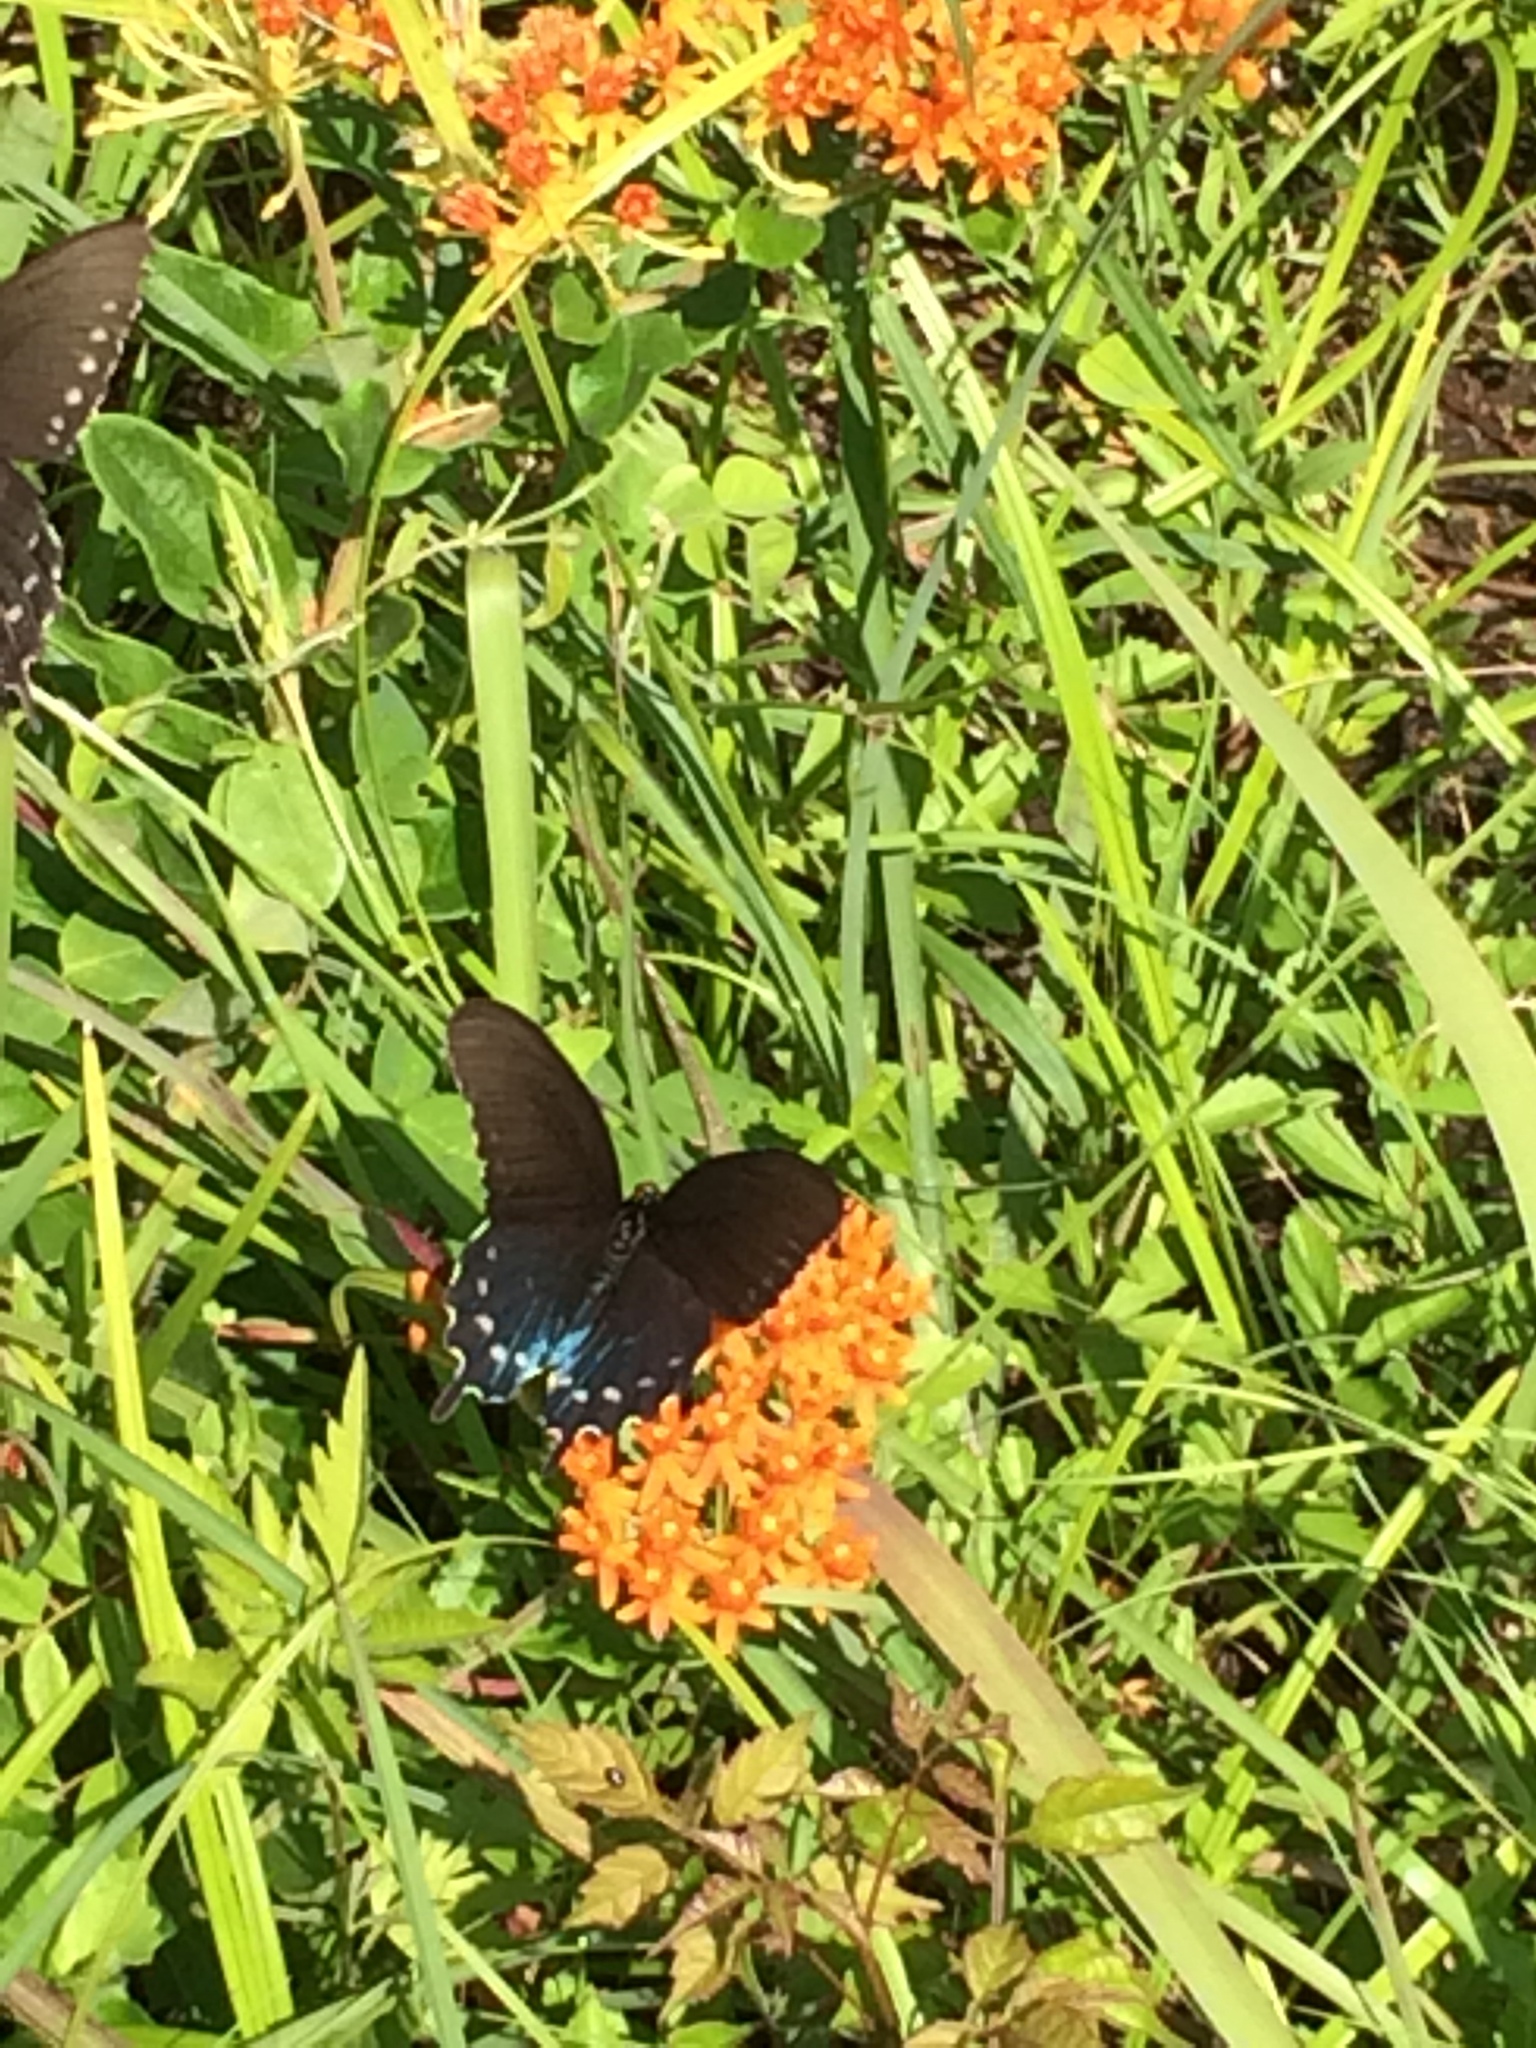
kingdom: Animalia
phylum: Arthropoda
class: Insecta
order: Lepidoptera
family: Papilionidae
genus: Battus
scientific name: Battus philenor
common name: Pipevine swallowtail
